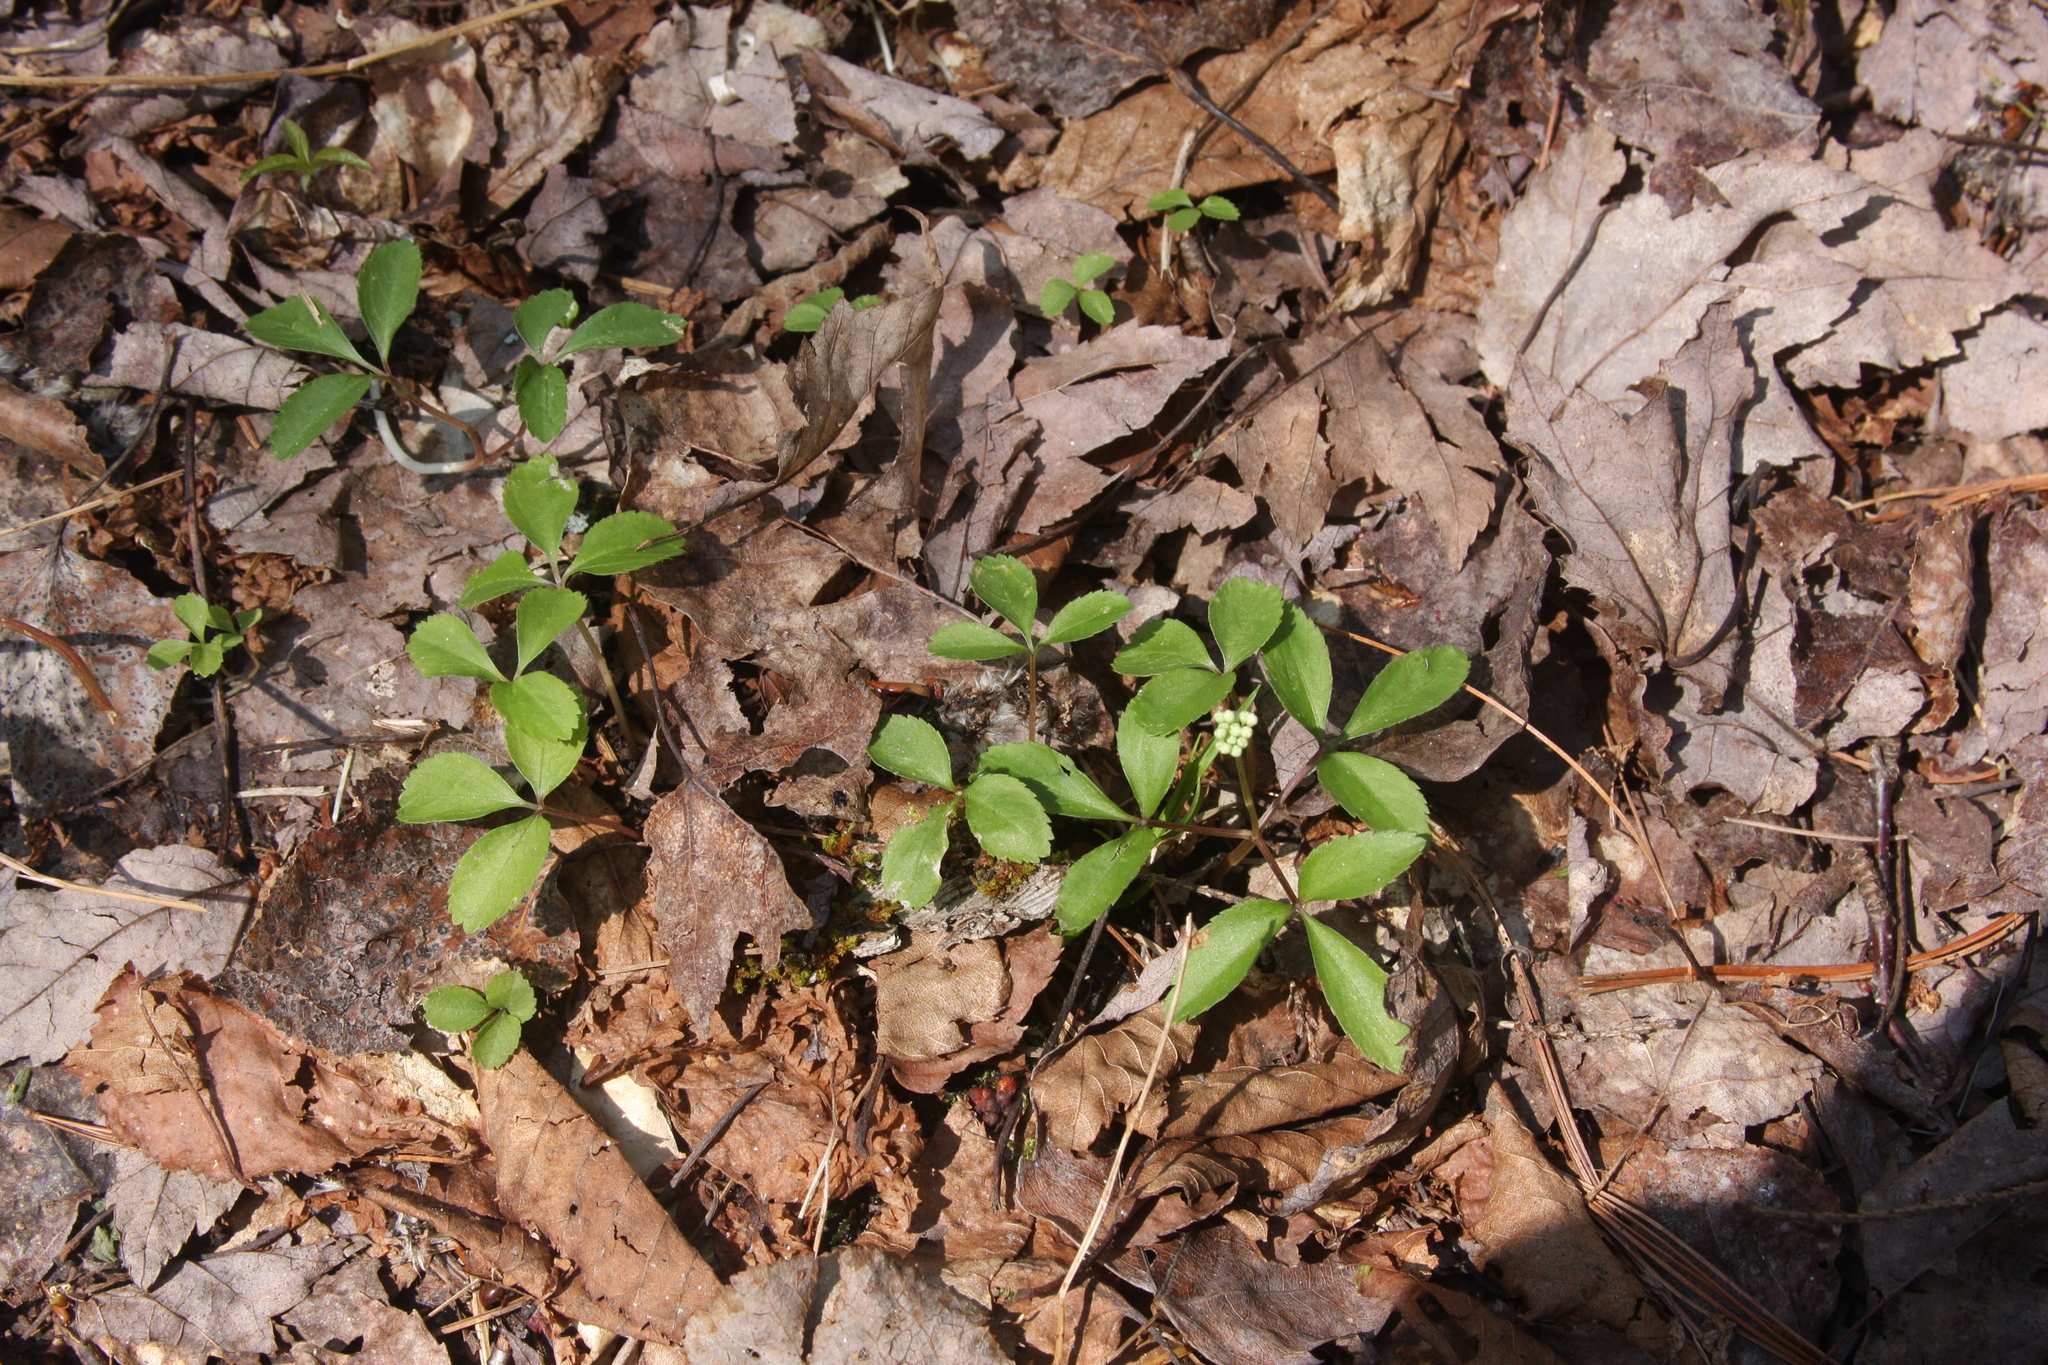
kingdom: Plantae
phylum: Tracheophyta
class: Magnoliopsida
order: Apiales
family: Araliaceae
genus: Panax
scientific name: Panax trifolius
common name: Dwarf ginseng
